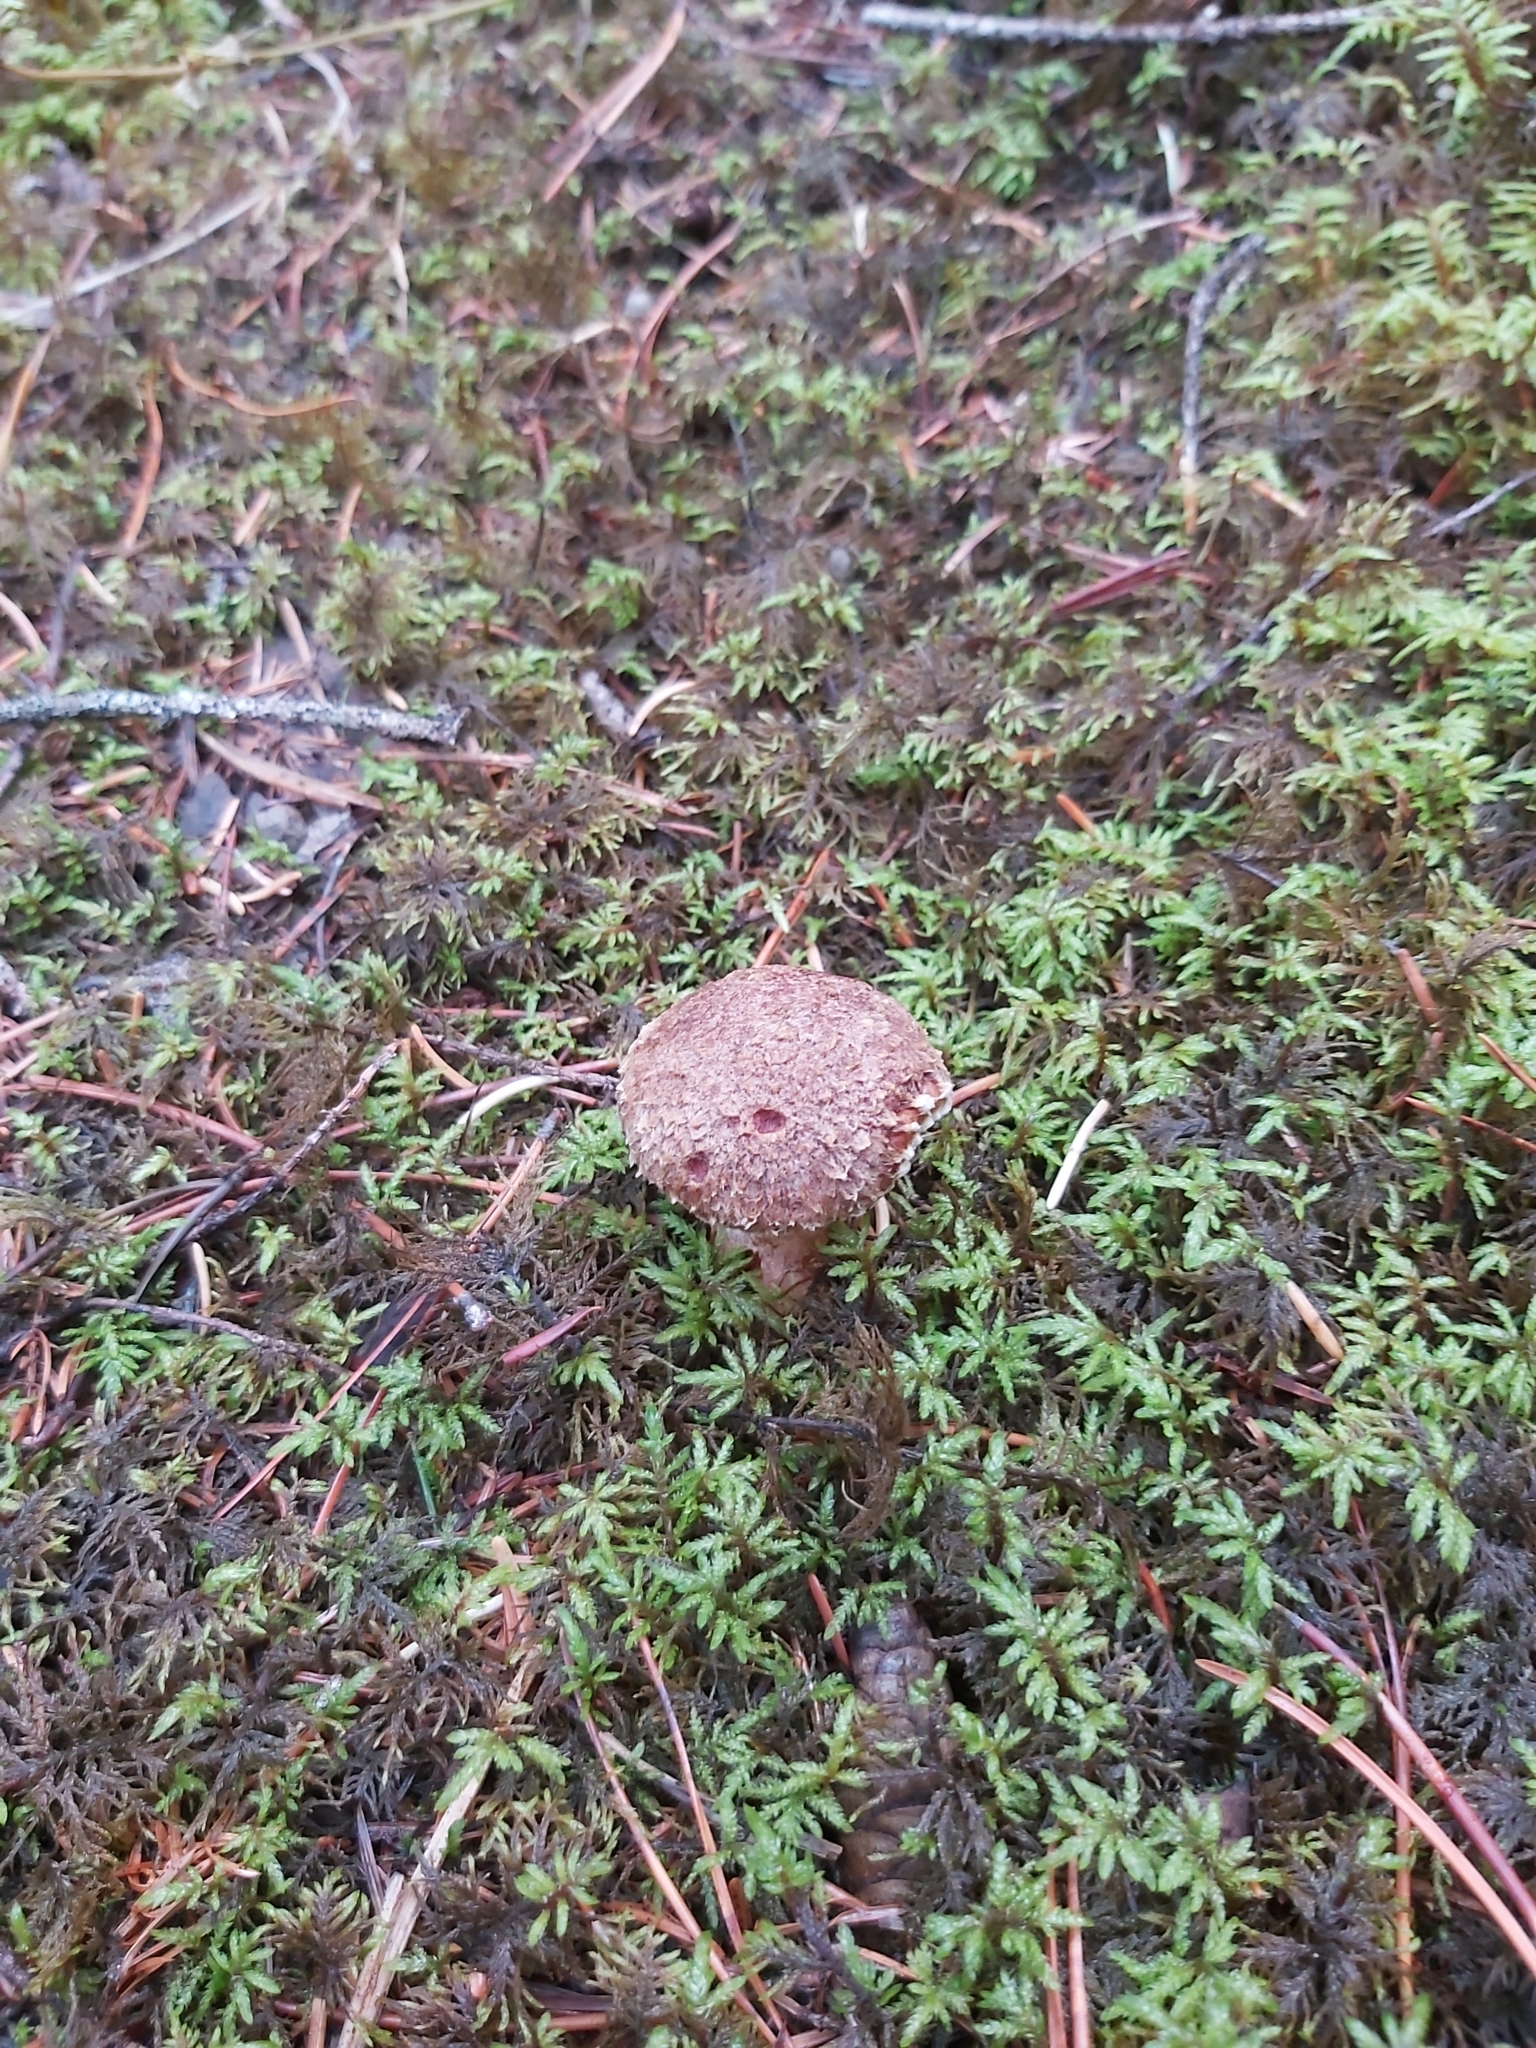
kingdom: Fungi
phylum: Basidiomycota
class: Agaricomycetes
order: Boletales
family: Suillaceae
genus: Suillus
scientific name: Suillus lakei
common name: Western painted suillus
